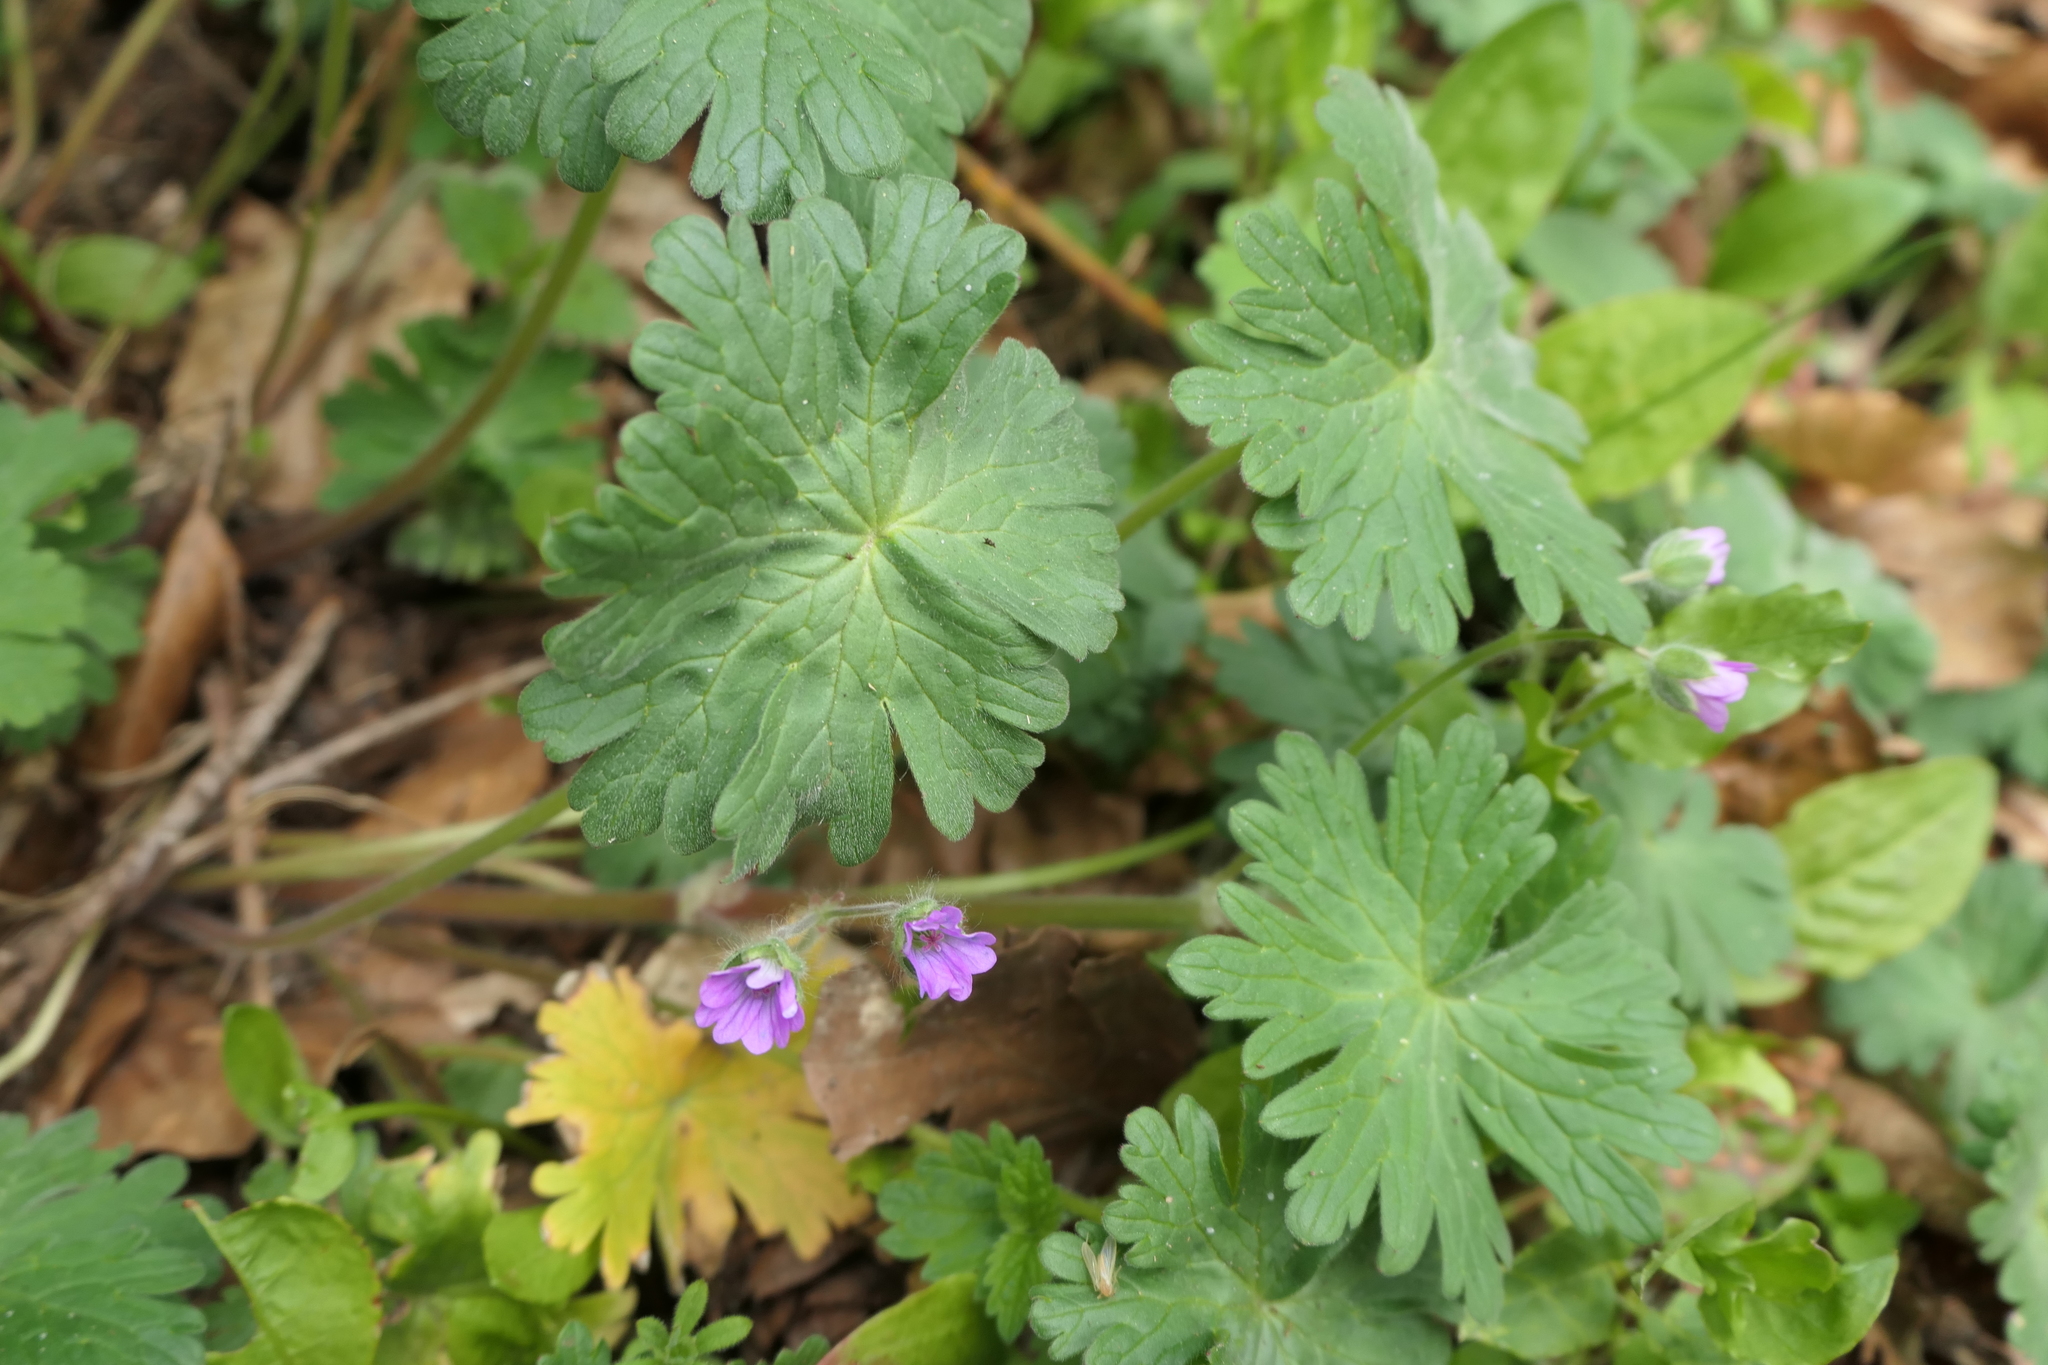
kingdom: Plantae
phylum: Tracheophyta
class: Magnoliopsida
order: Geraniales
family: Geraniaceae
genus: Geranium
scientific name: Geranium molle
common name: Dove's-foot crane's-bill
